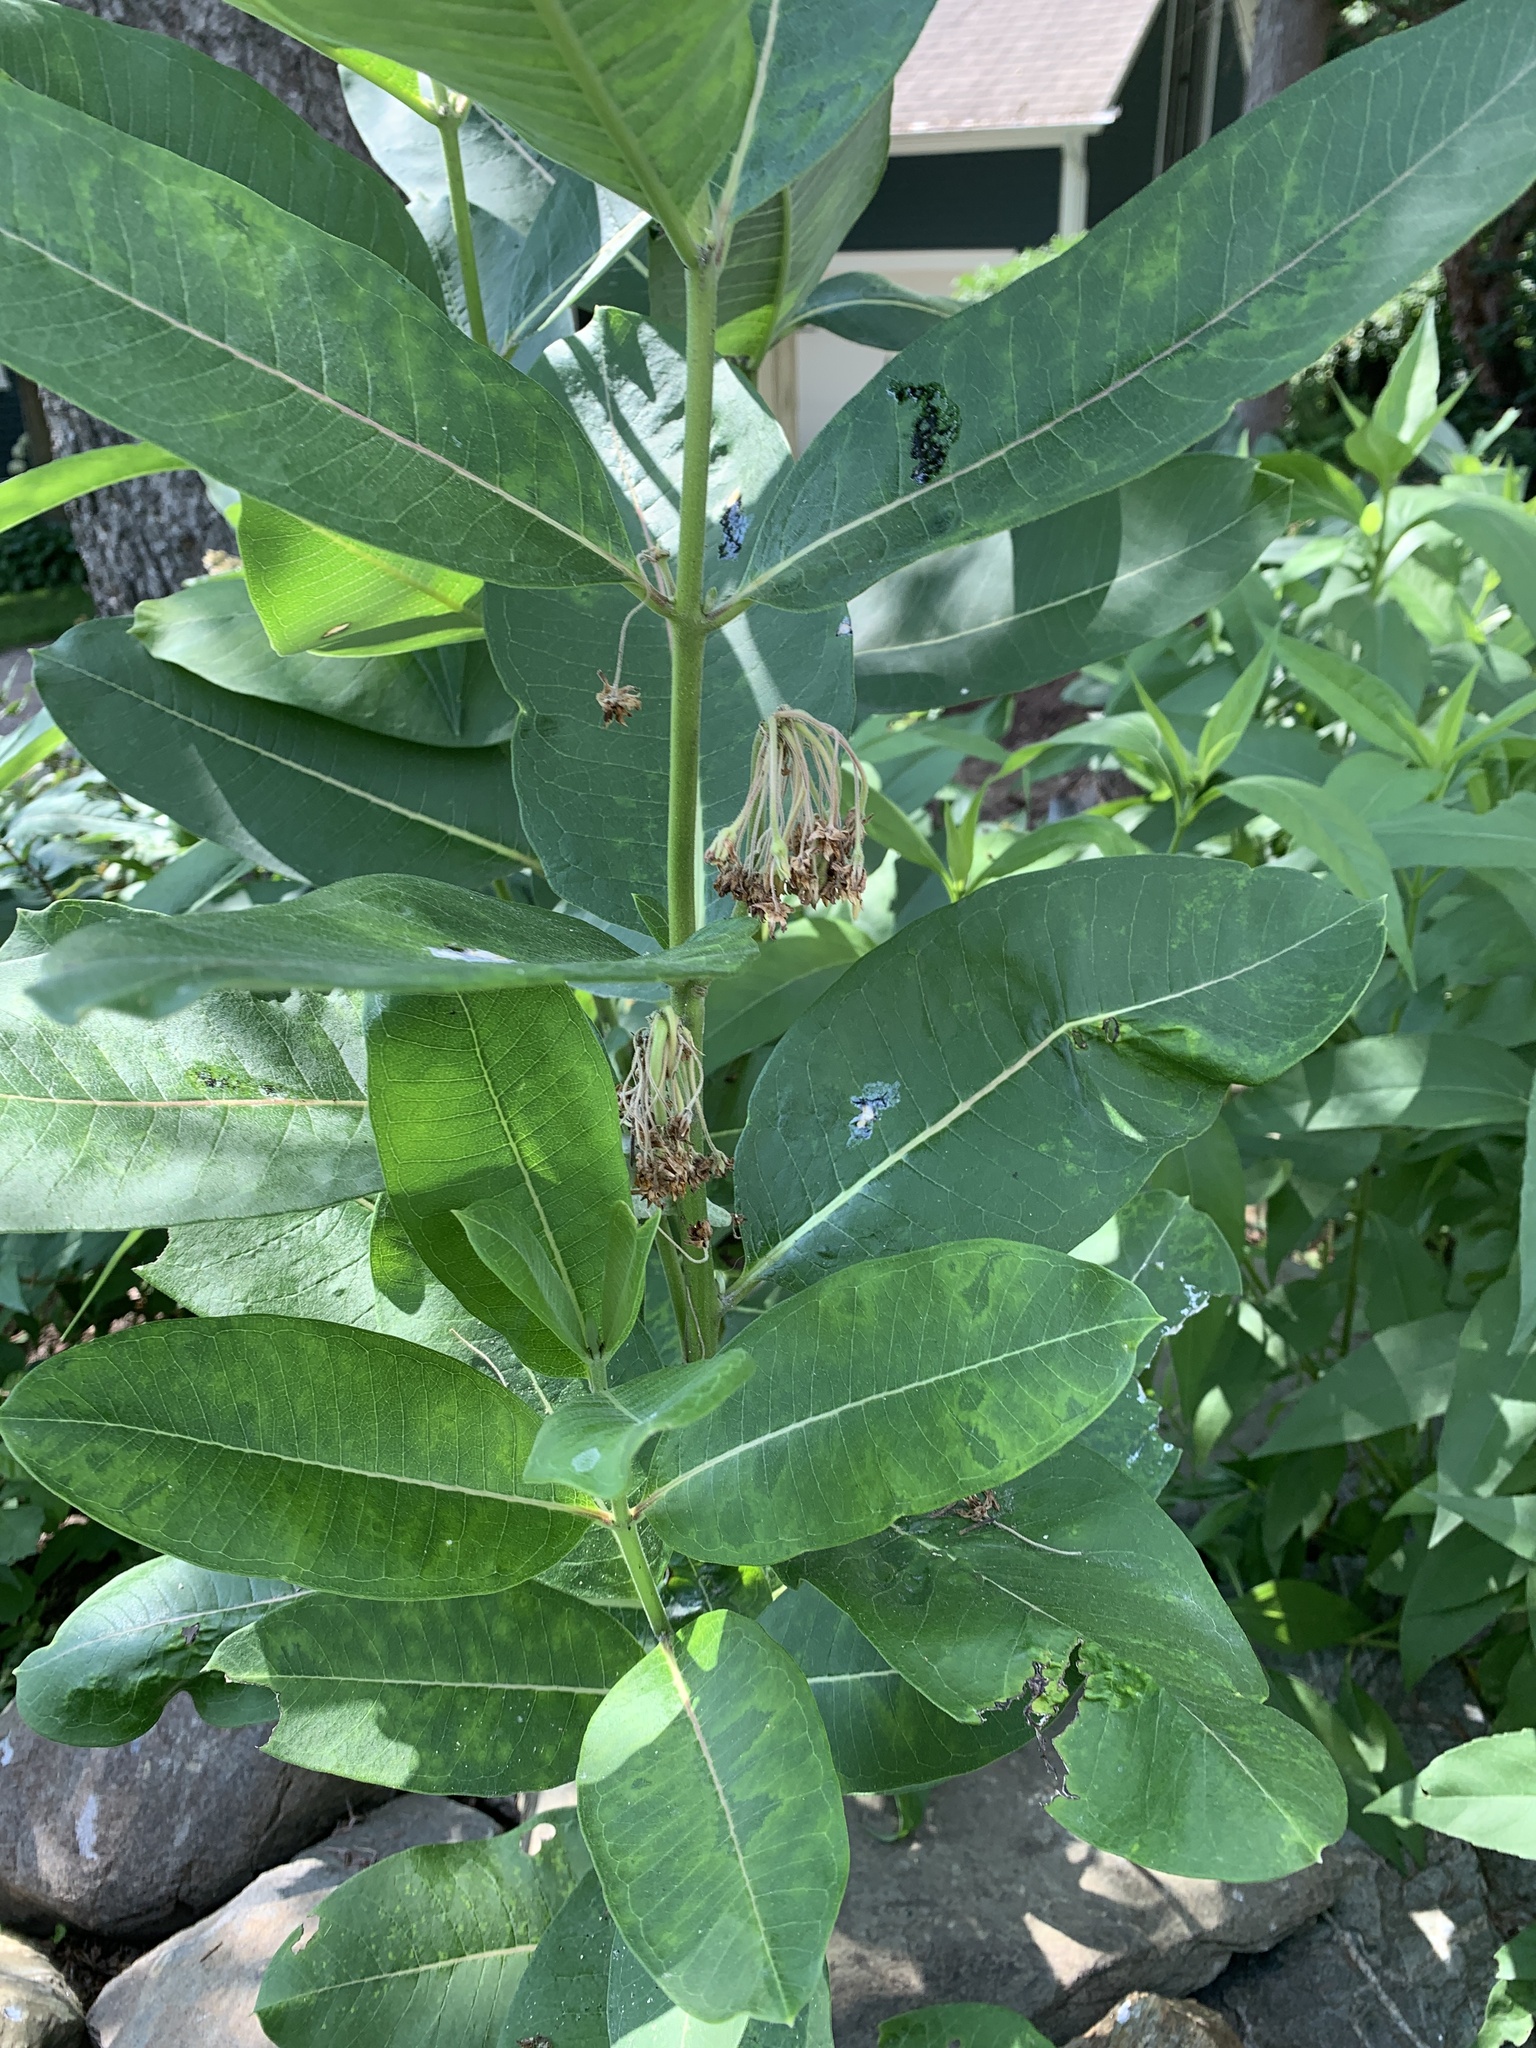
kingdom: Plantae
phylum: Tracheophyta
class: Magnoliopsida
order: Gentianales
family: Apocynaceae
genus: Asclepias
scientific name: Asclepias syriaca
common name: Common milkweed
